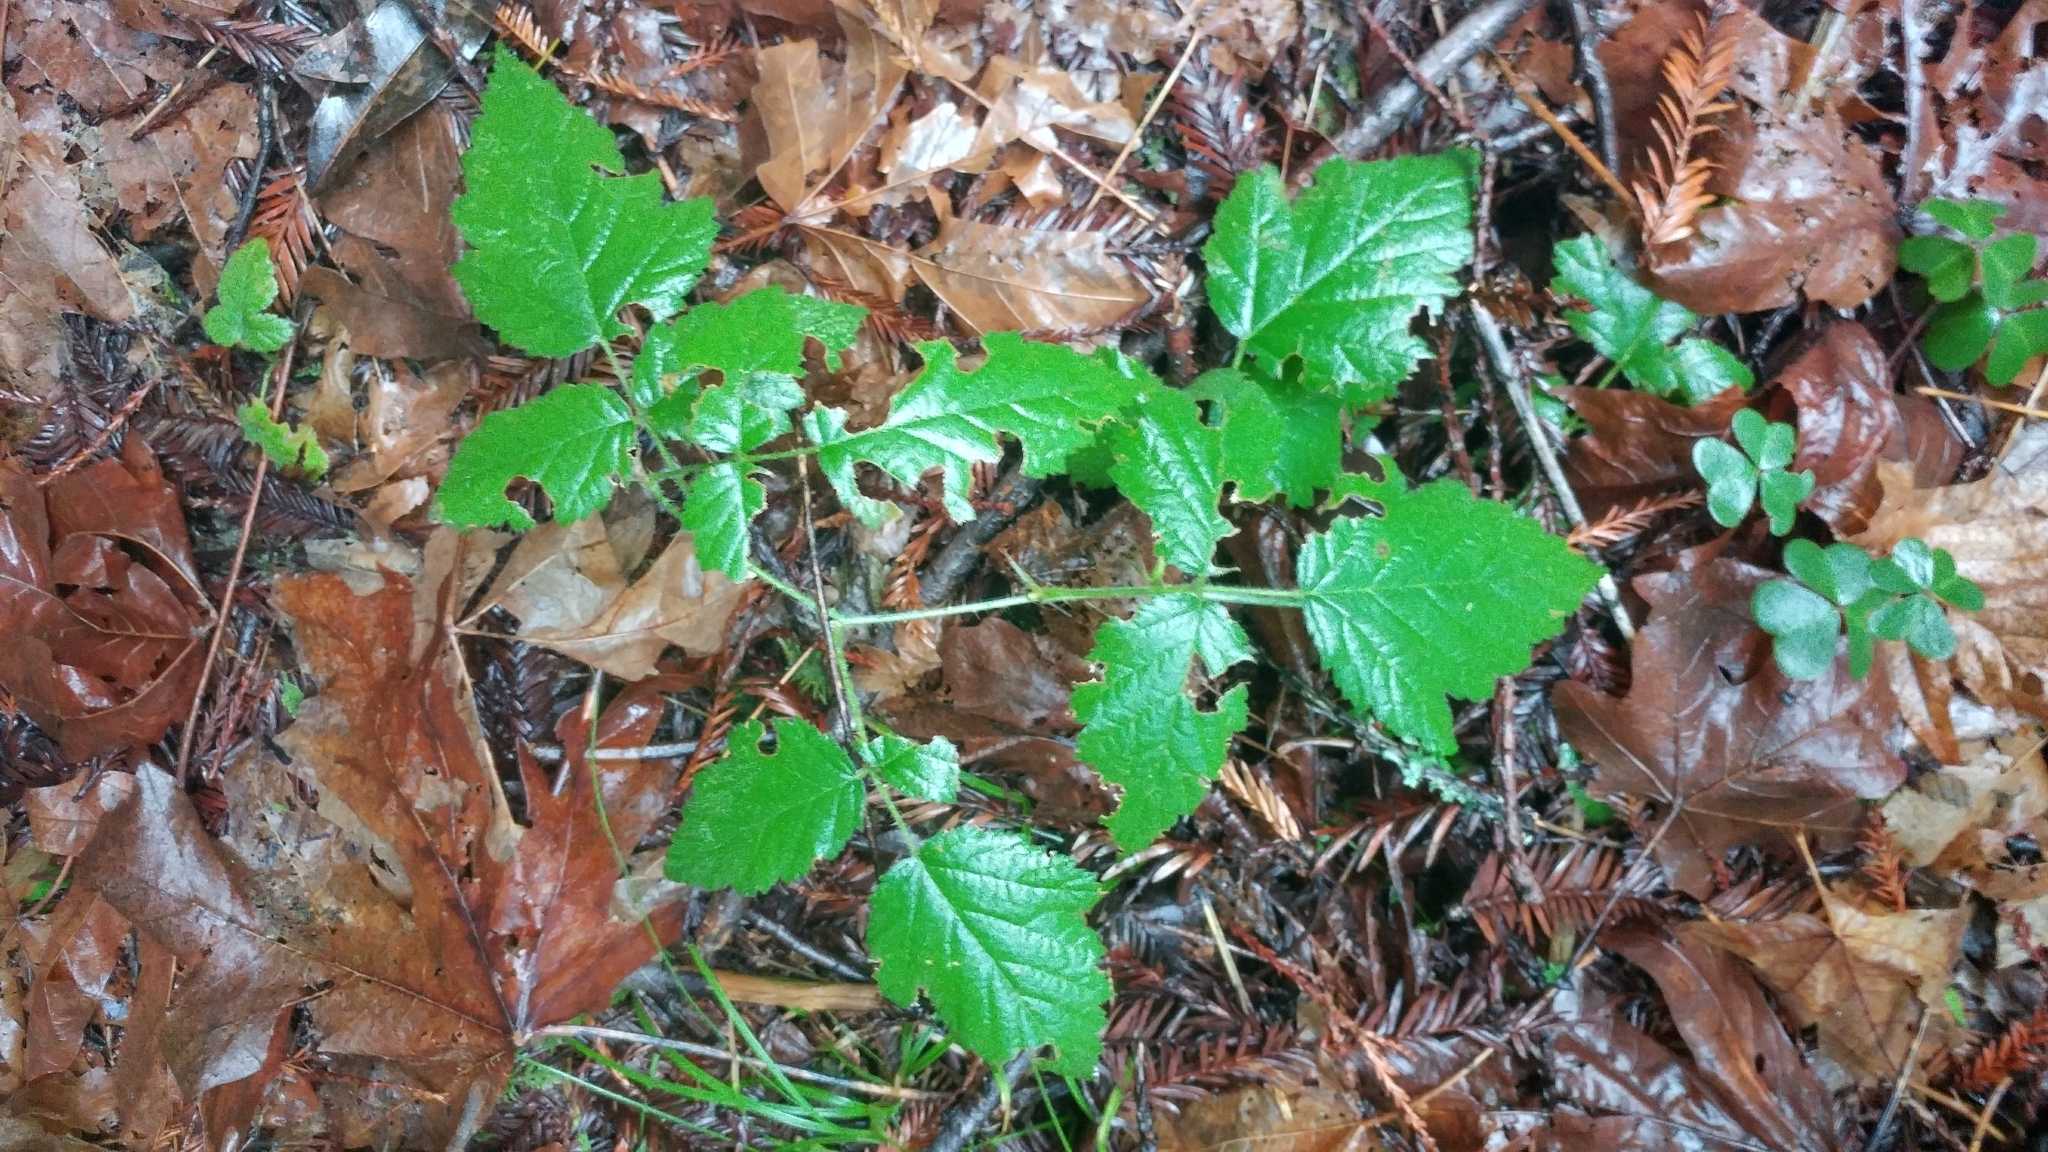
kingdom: Plantae
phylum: Tracheophyta
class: Magnoliopsida
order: Rosales
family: Rosaceae
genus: Rubus
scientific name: Rubus ursinus
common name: Pacific blackberry
